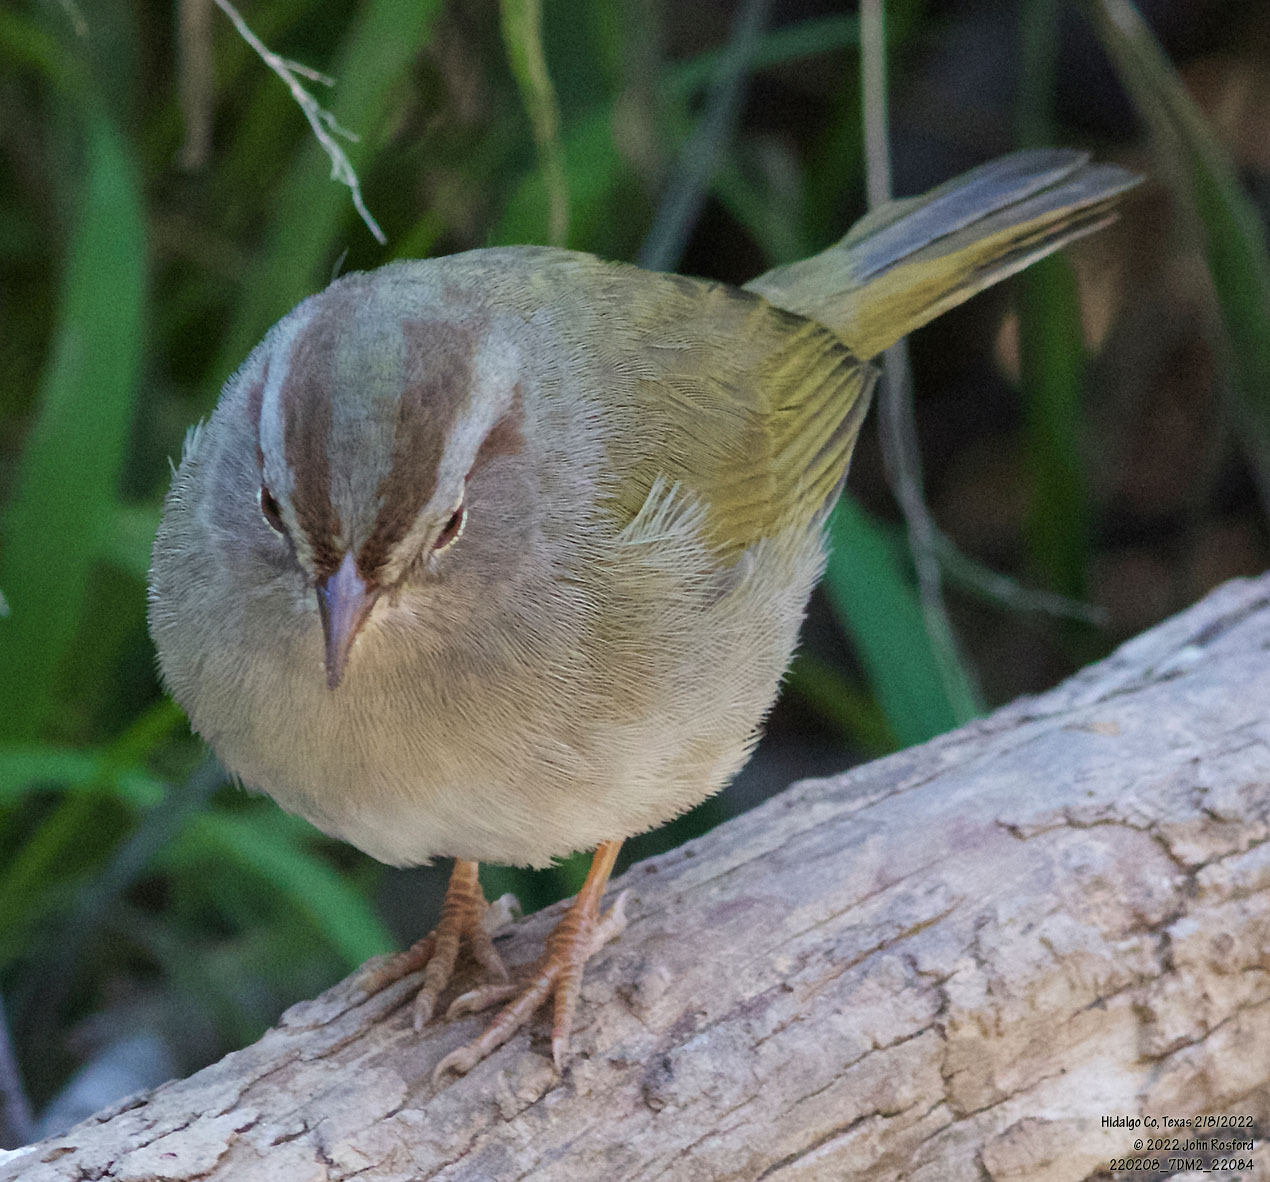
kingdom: Animalia
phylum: Chordata
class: Aves
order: Passeriformes
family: Passerellidae
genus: Arremonops
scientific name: Arremonops rufivirgatus
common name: Olive sparrow
